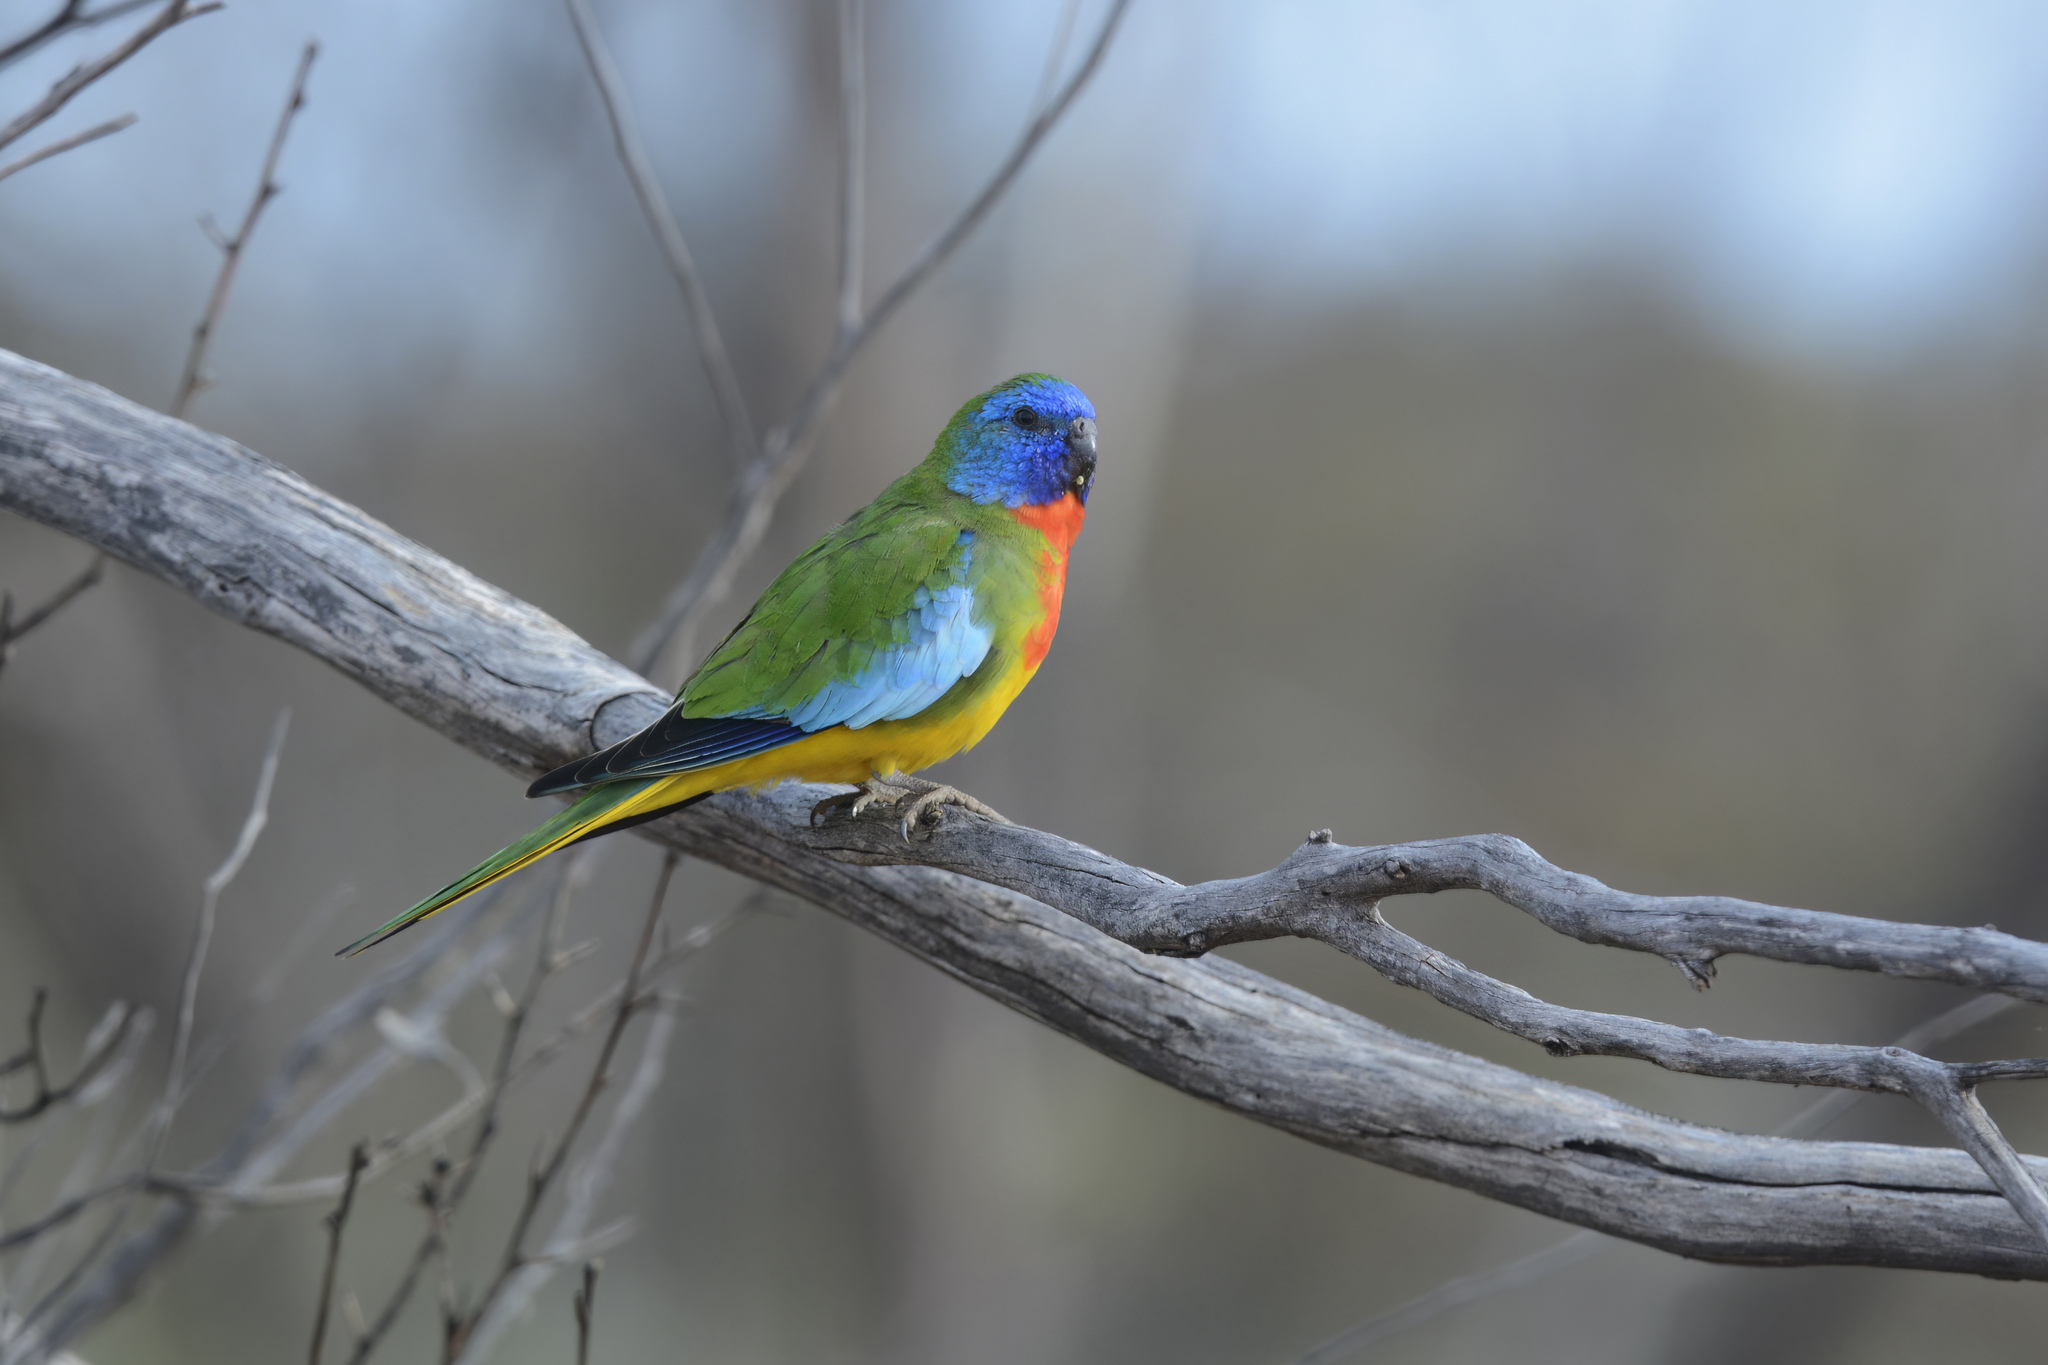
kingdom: Animalia
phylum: Chordata
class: Aves
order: Psittaciformes
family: Psittacidae
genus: Neophema
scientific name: Neophema splendida
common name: Scarlet-chested parrot
